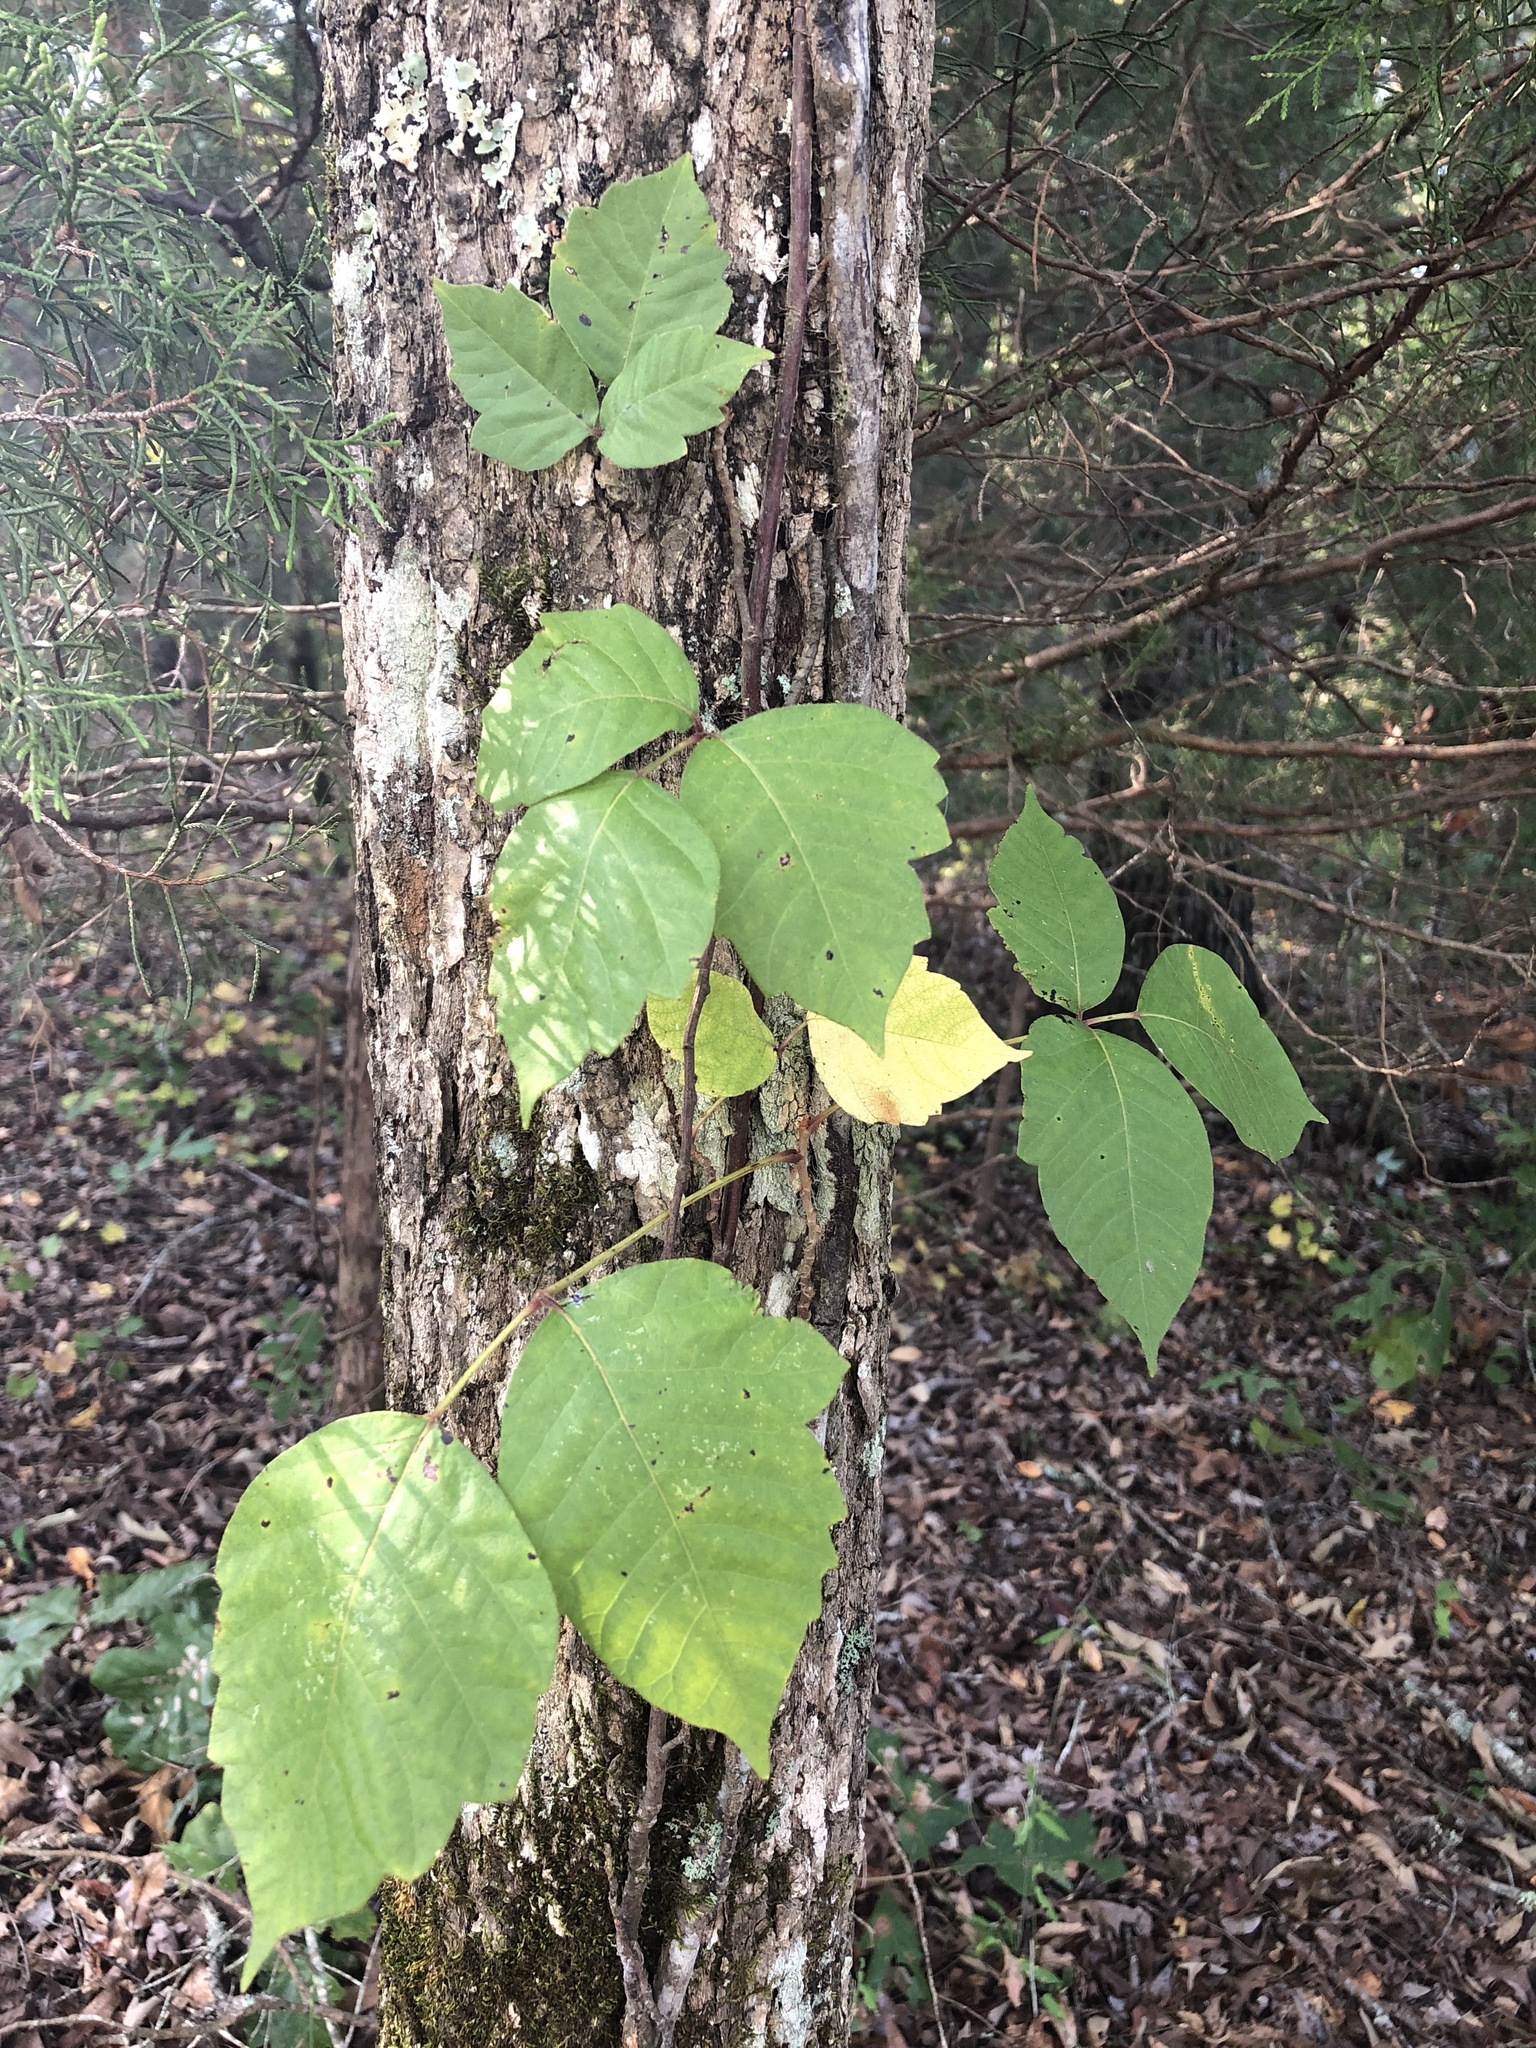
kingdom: Plantae
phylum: Tracheophyta
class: Magnoliopsida
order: Sapindales
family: Anacardiaceae
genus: Toxicodendron
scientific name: Toxicodendron radicans
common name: Poison ivy
